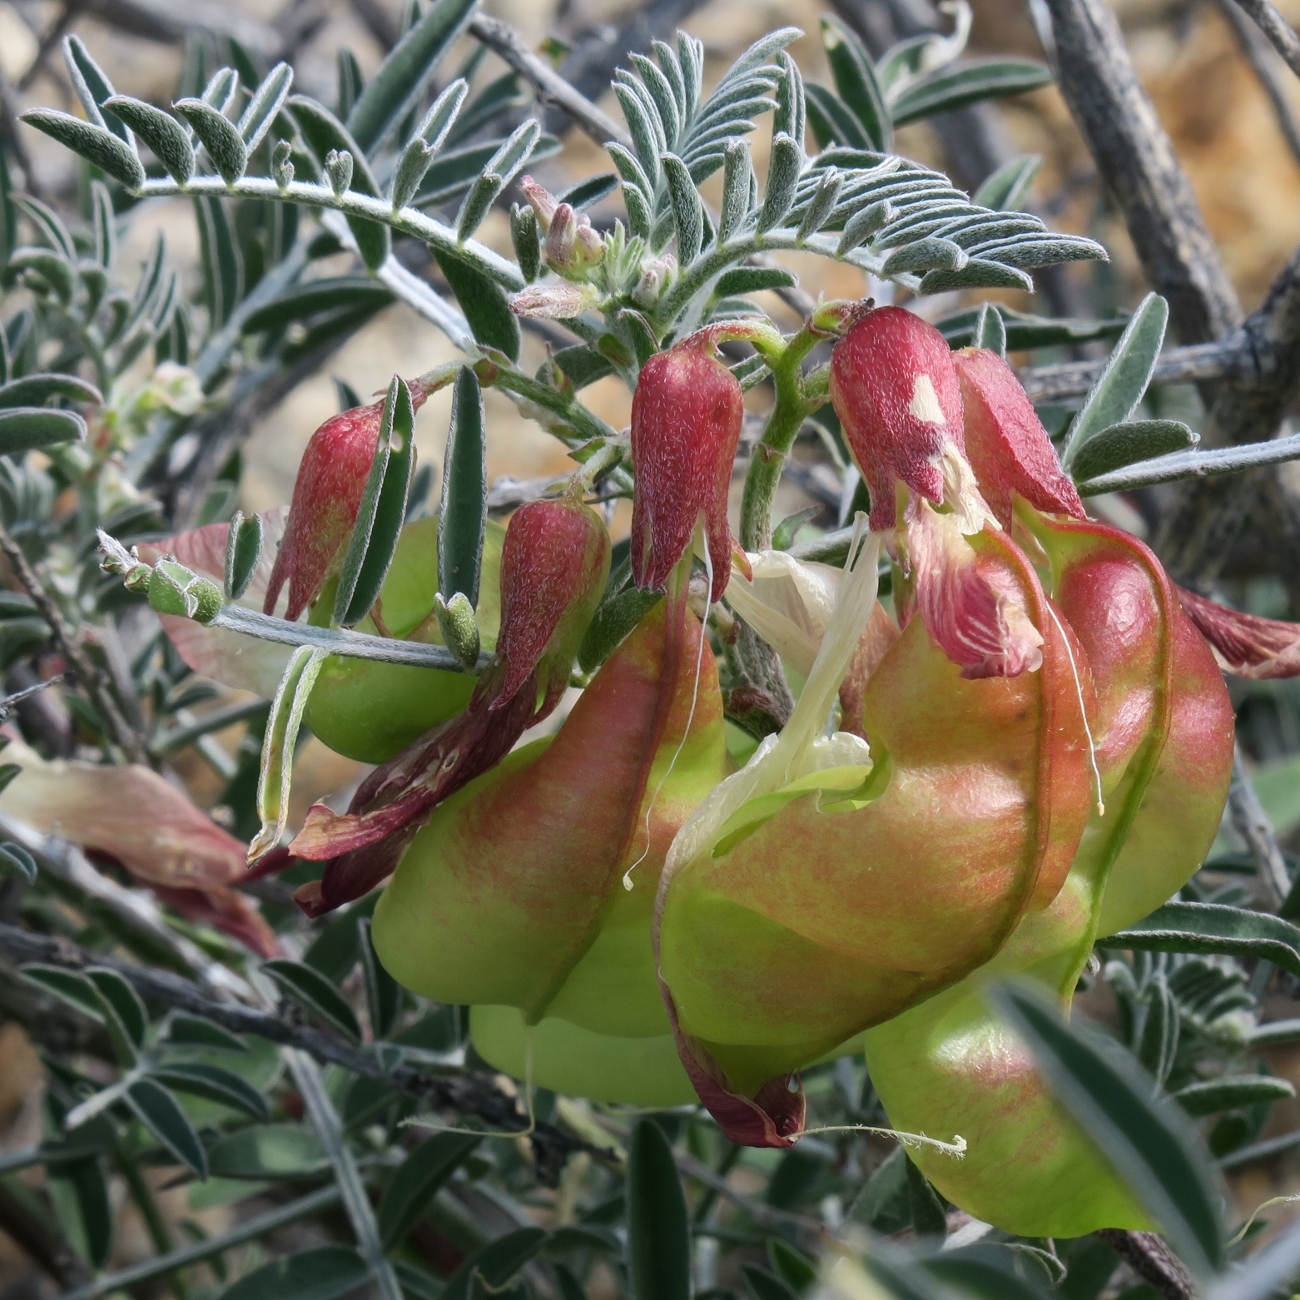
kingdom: Plantae
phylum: Tracheophyta
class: Magnoliopsida
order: Fabales
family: Fabaceae
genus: Lessertia
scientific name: Lessertia frutescens
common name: Balloon-pea
